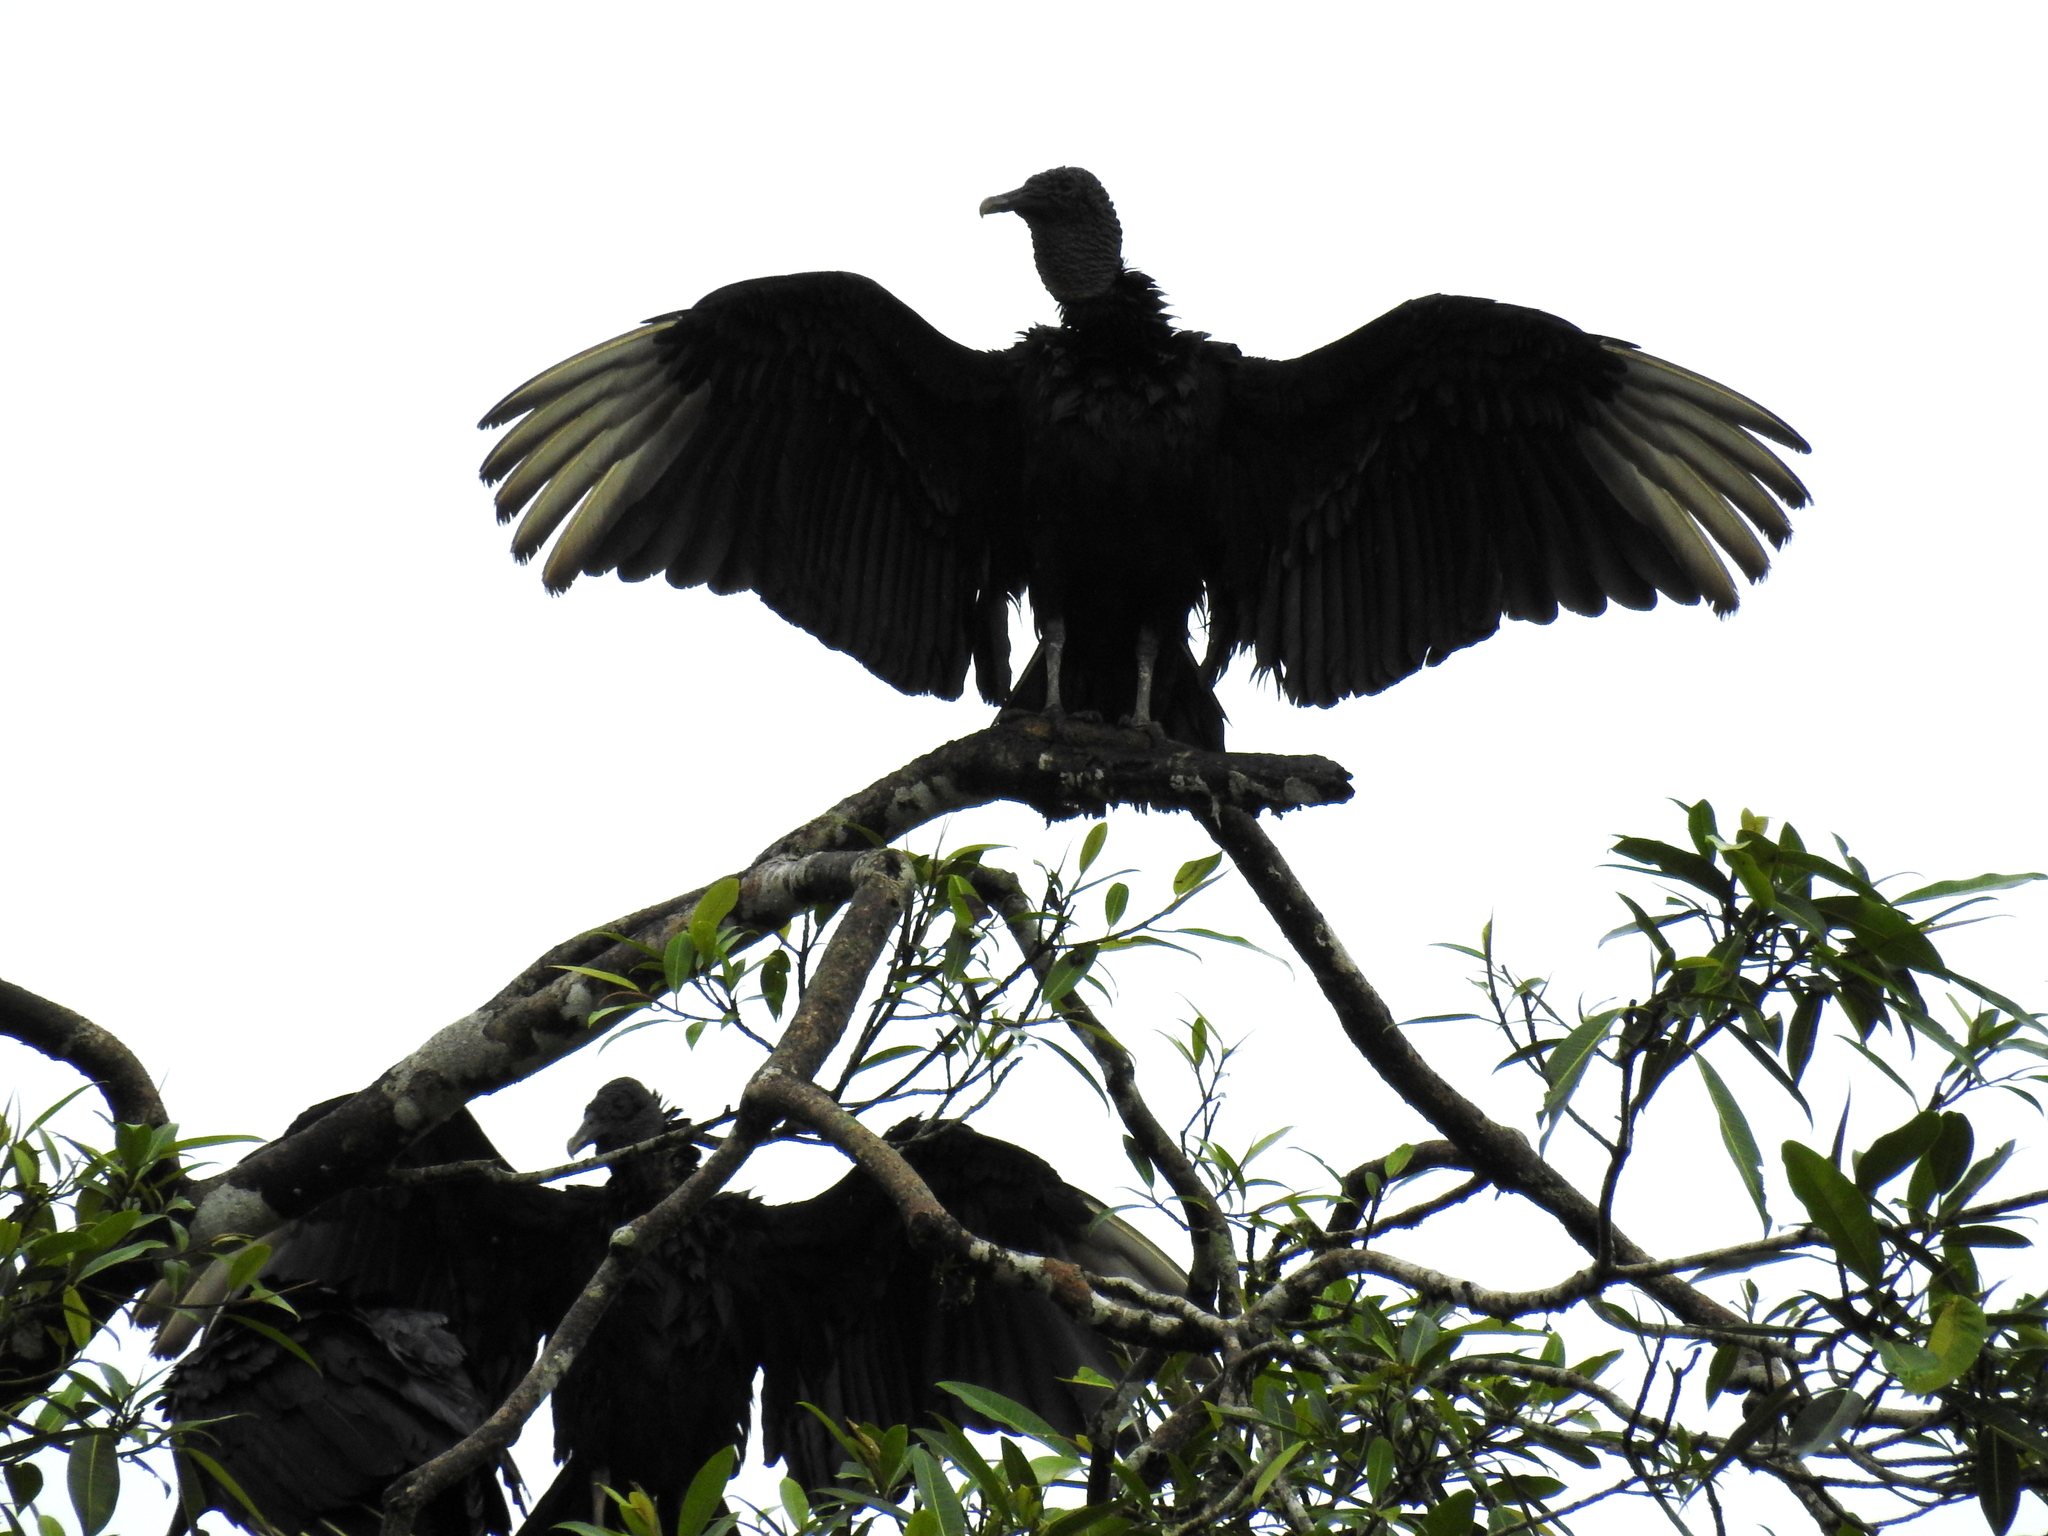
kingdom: Animalia
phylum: Chordata
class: Aves
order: Accipitriformes
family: Cathartidae
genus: Coragyps
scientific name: Coragyps atratus
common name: Black vulture
